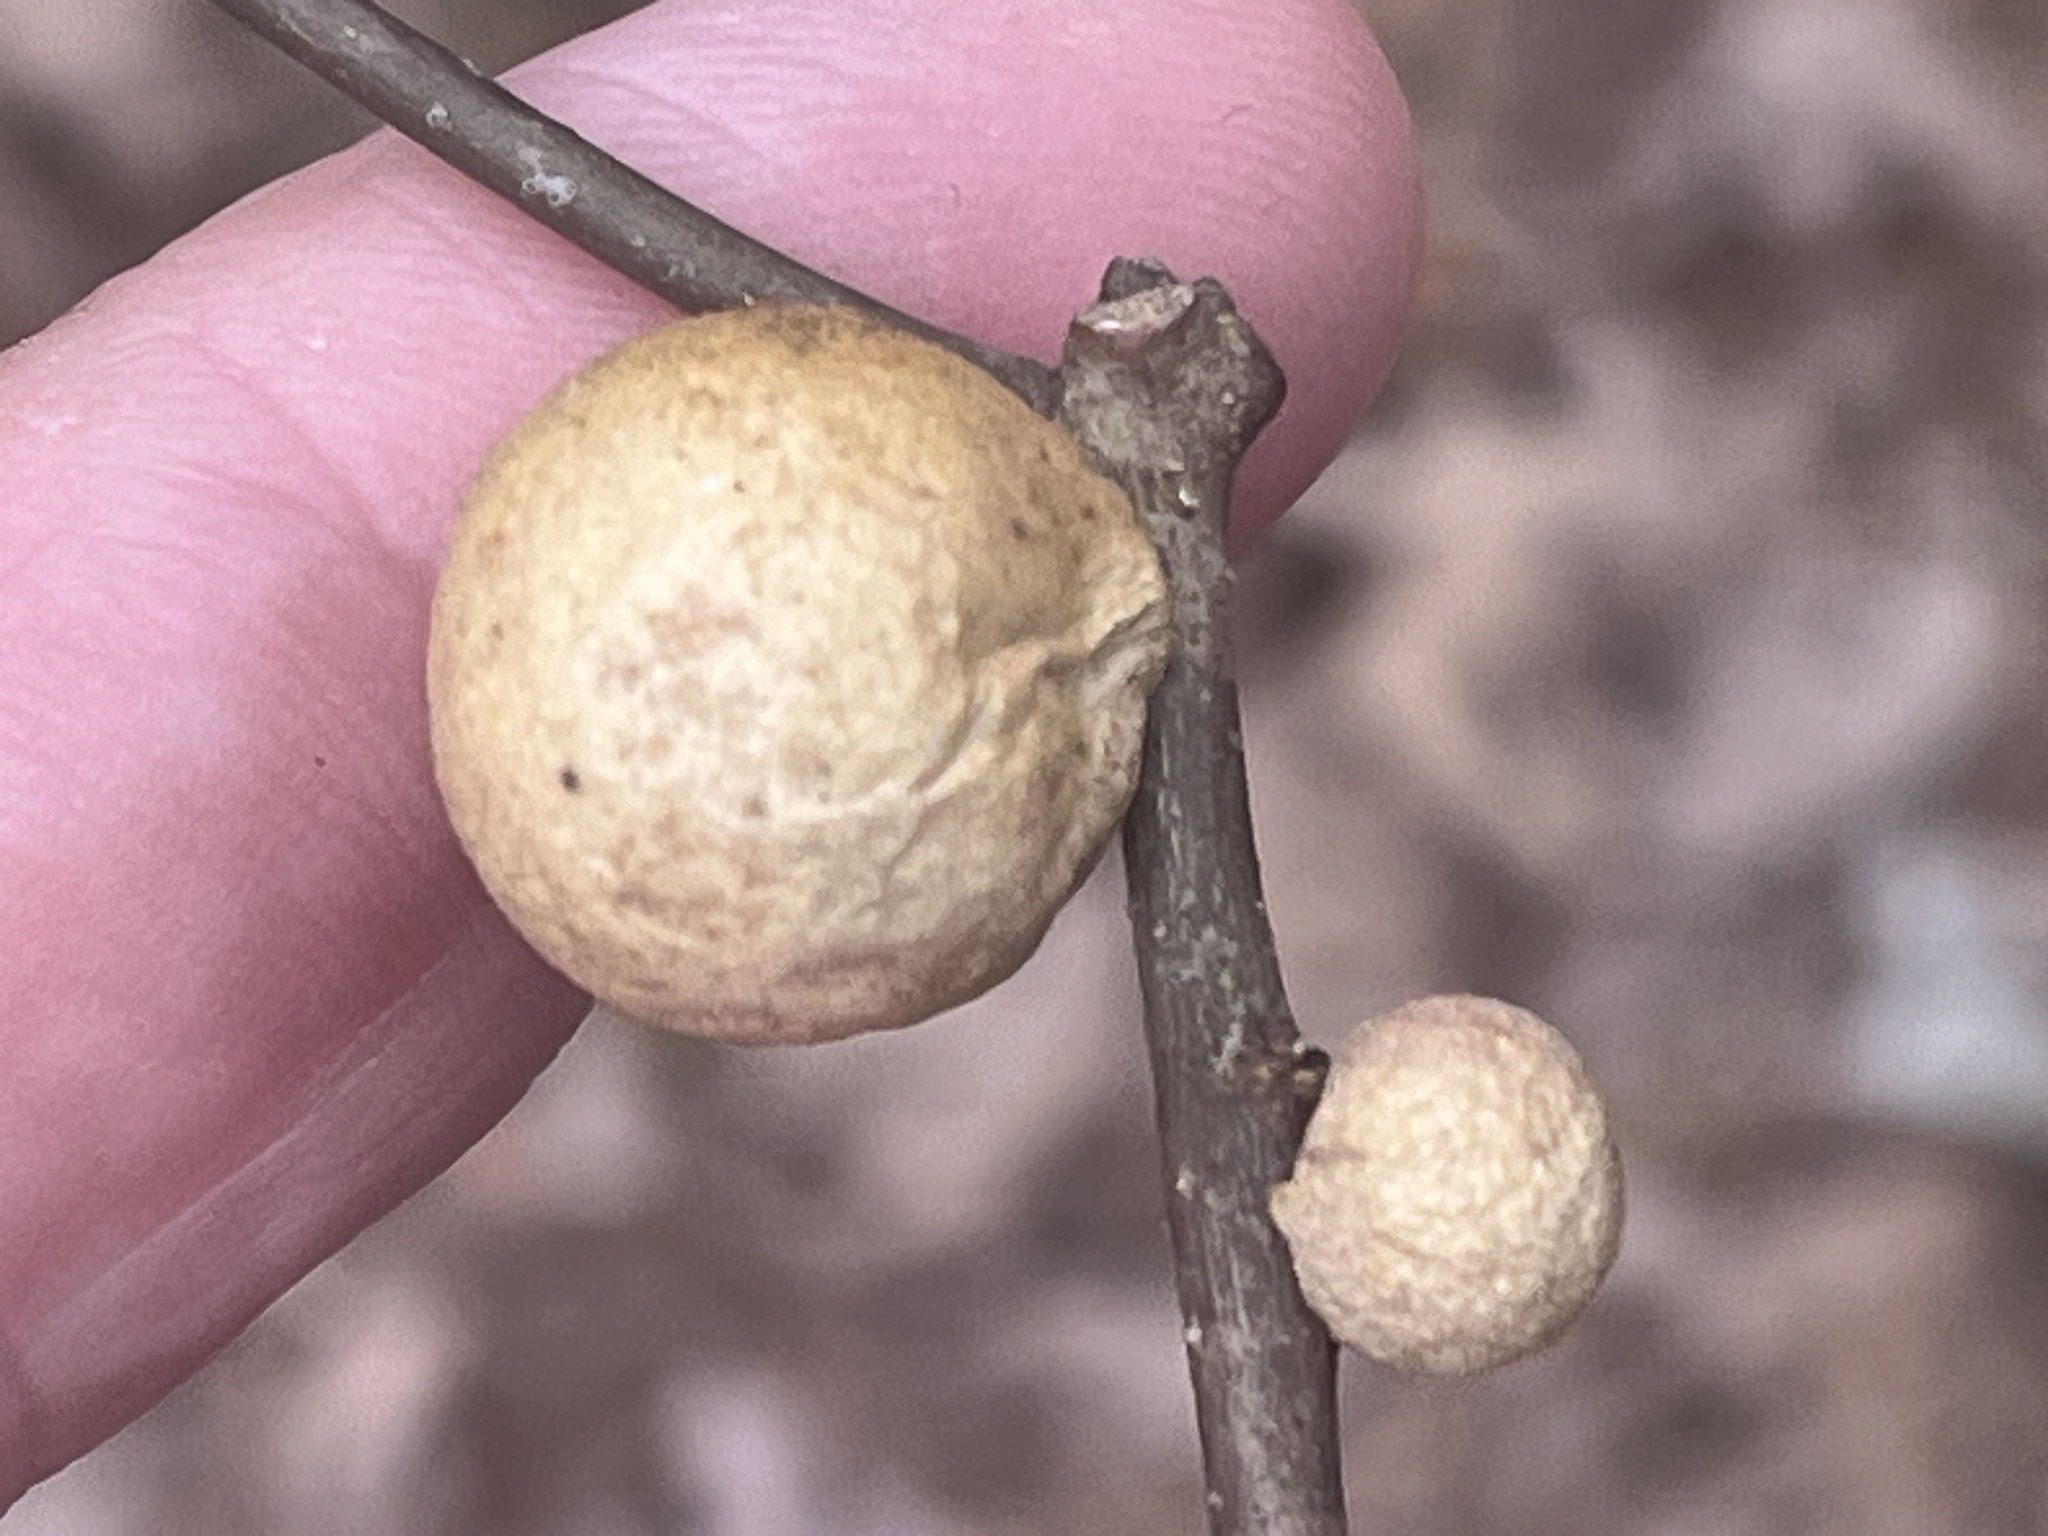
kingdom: Animalia
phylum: Arthropoda
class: Insecta
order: Hymenoptera
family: Cynipidae
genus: Disholcaspis
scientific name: Disholcaspis quercusglobulus
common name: Round bullet gall wasp
